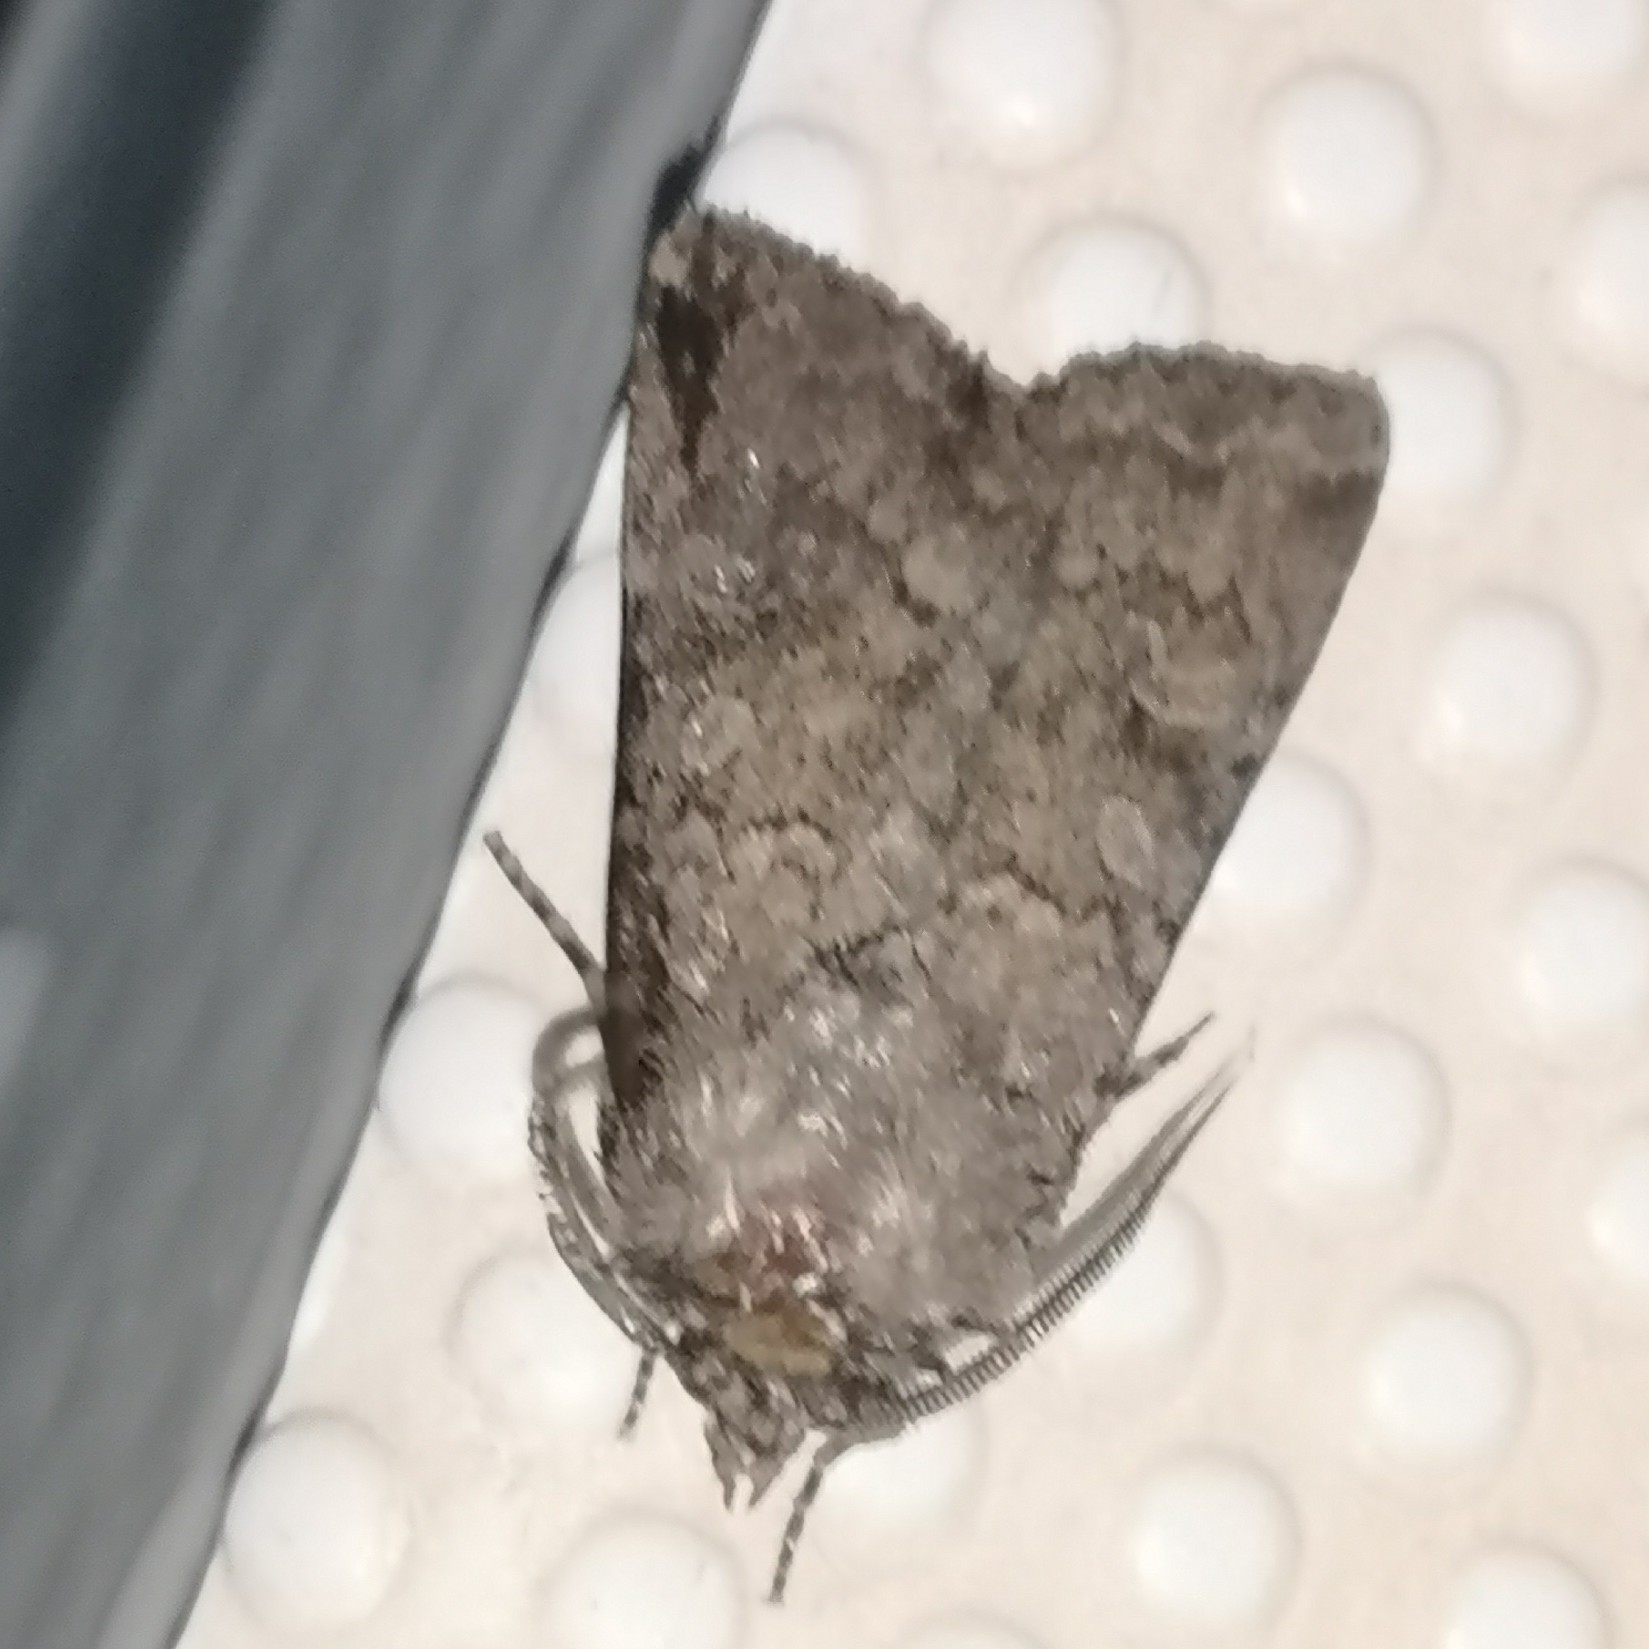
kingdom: Animalia
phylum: Arthropoda
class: Insecta
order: Lepidoptera
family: Noctuidae
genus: Euxoa
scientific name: Euxoa canariensis
